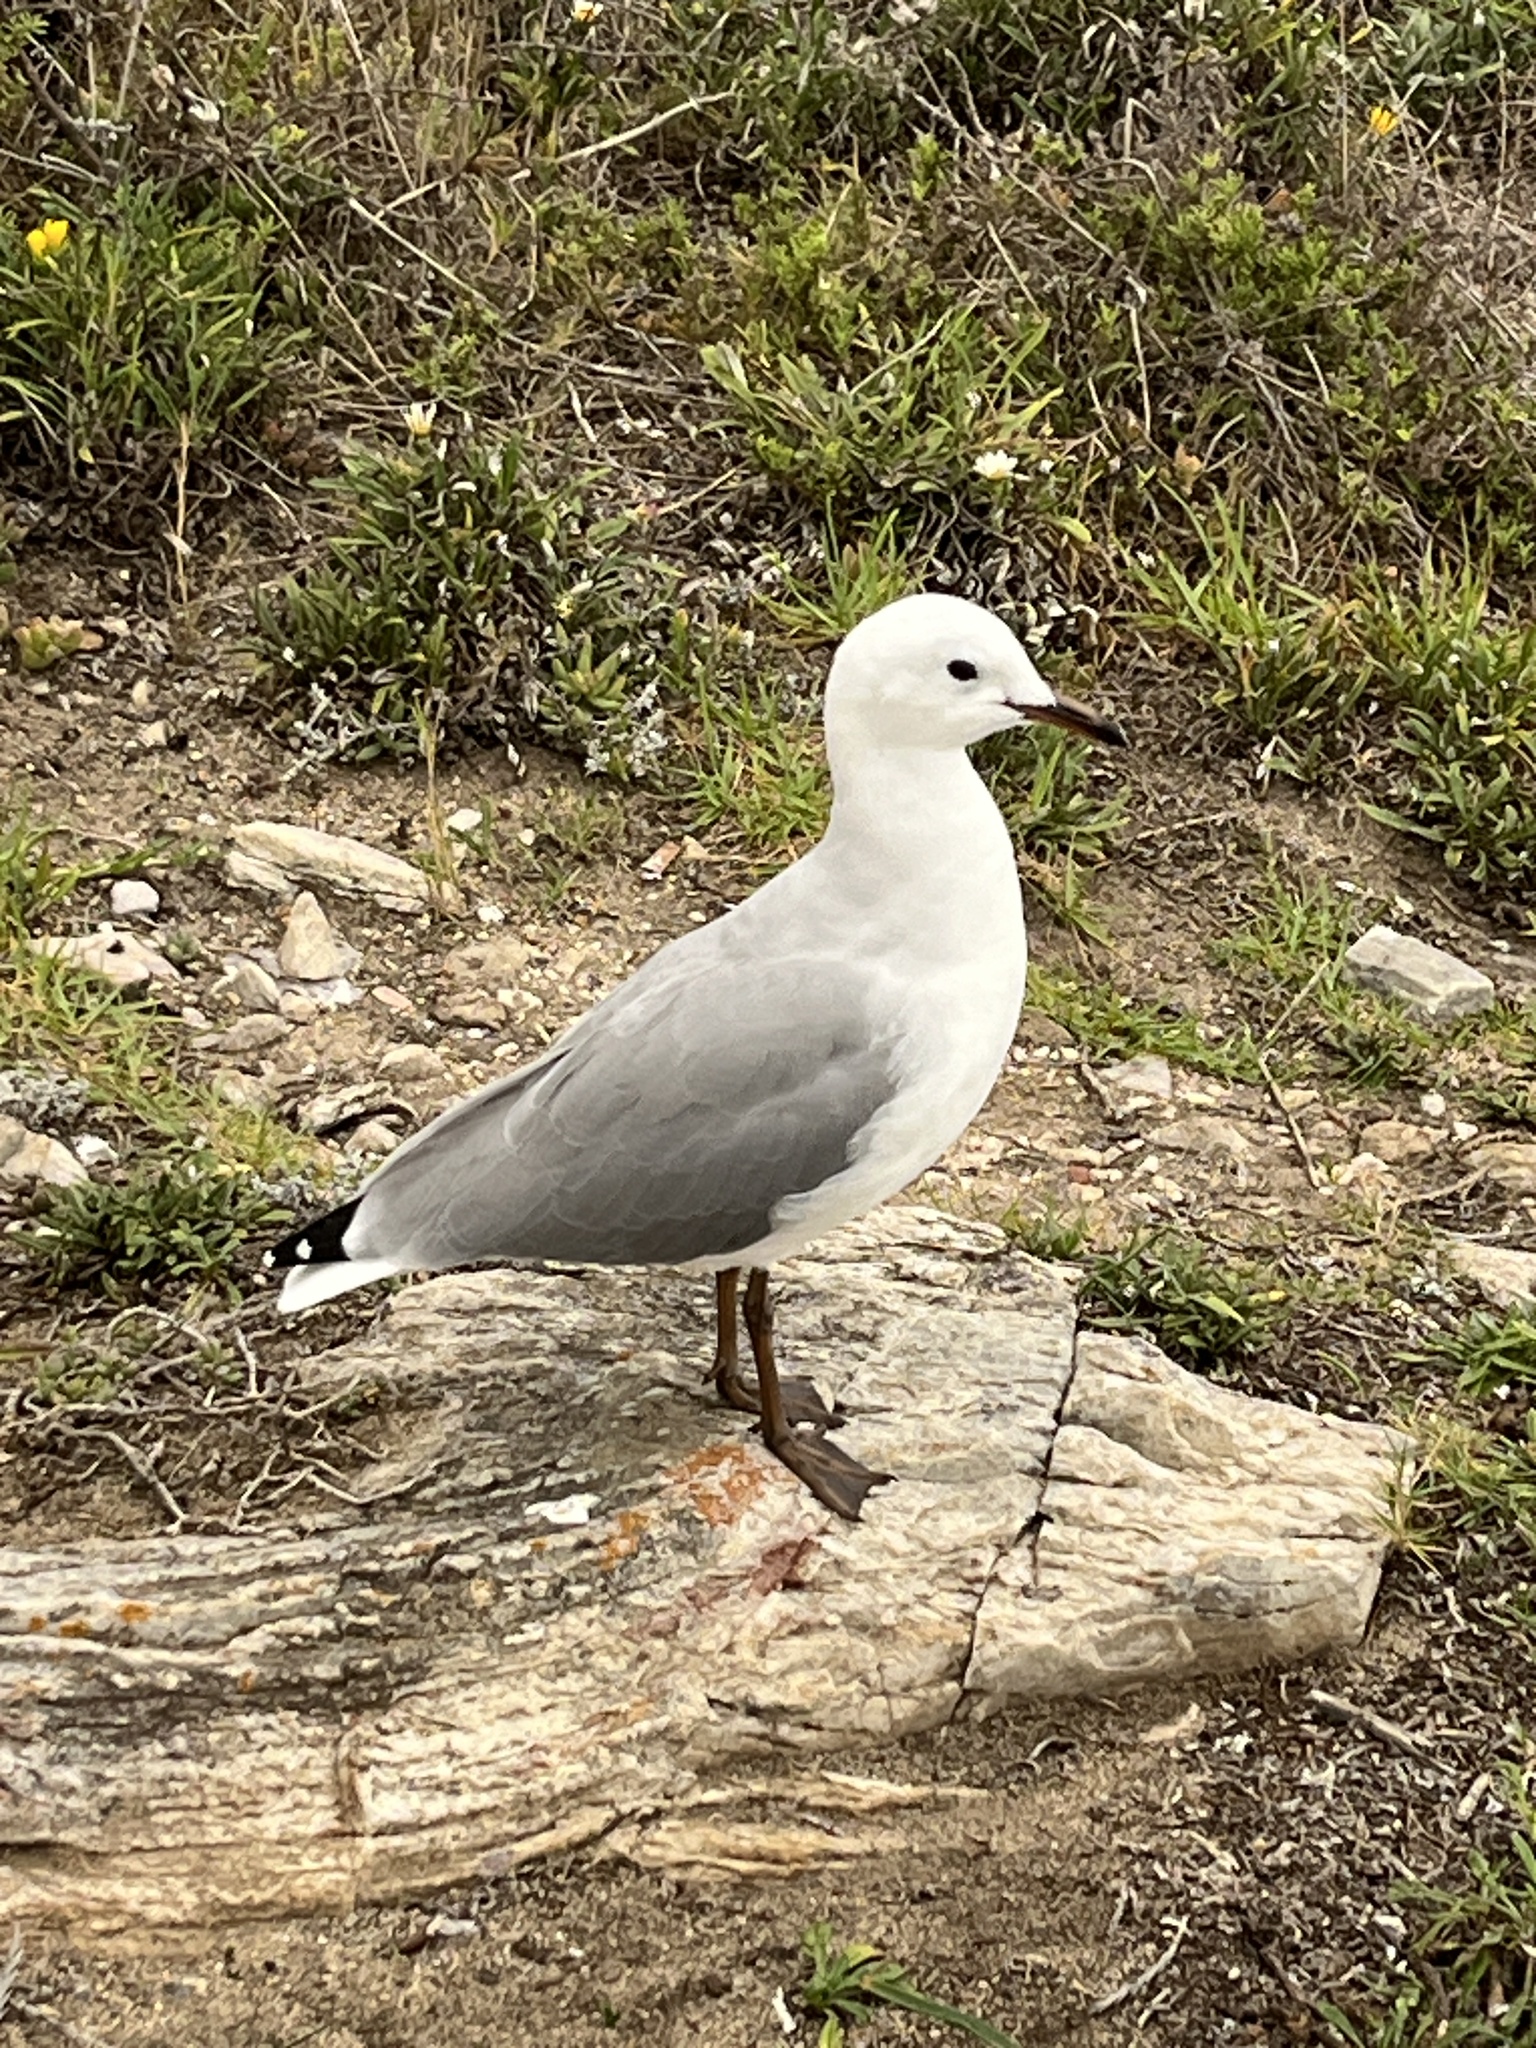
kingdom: Animalia
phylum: Chordata
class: Aves
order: Charadriiformes
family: Laridae
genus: Chroicocephalus
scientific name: Chroicocephalus hartlaubii
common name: Hartlaub's gull
